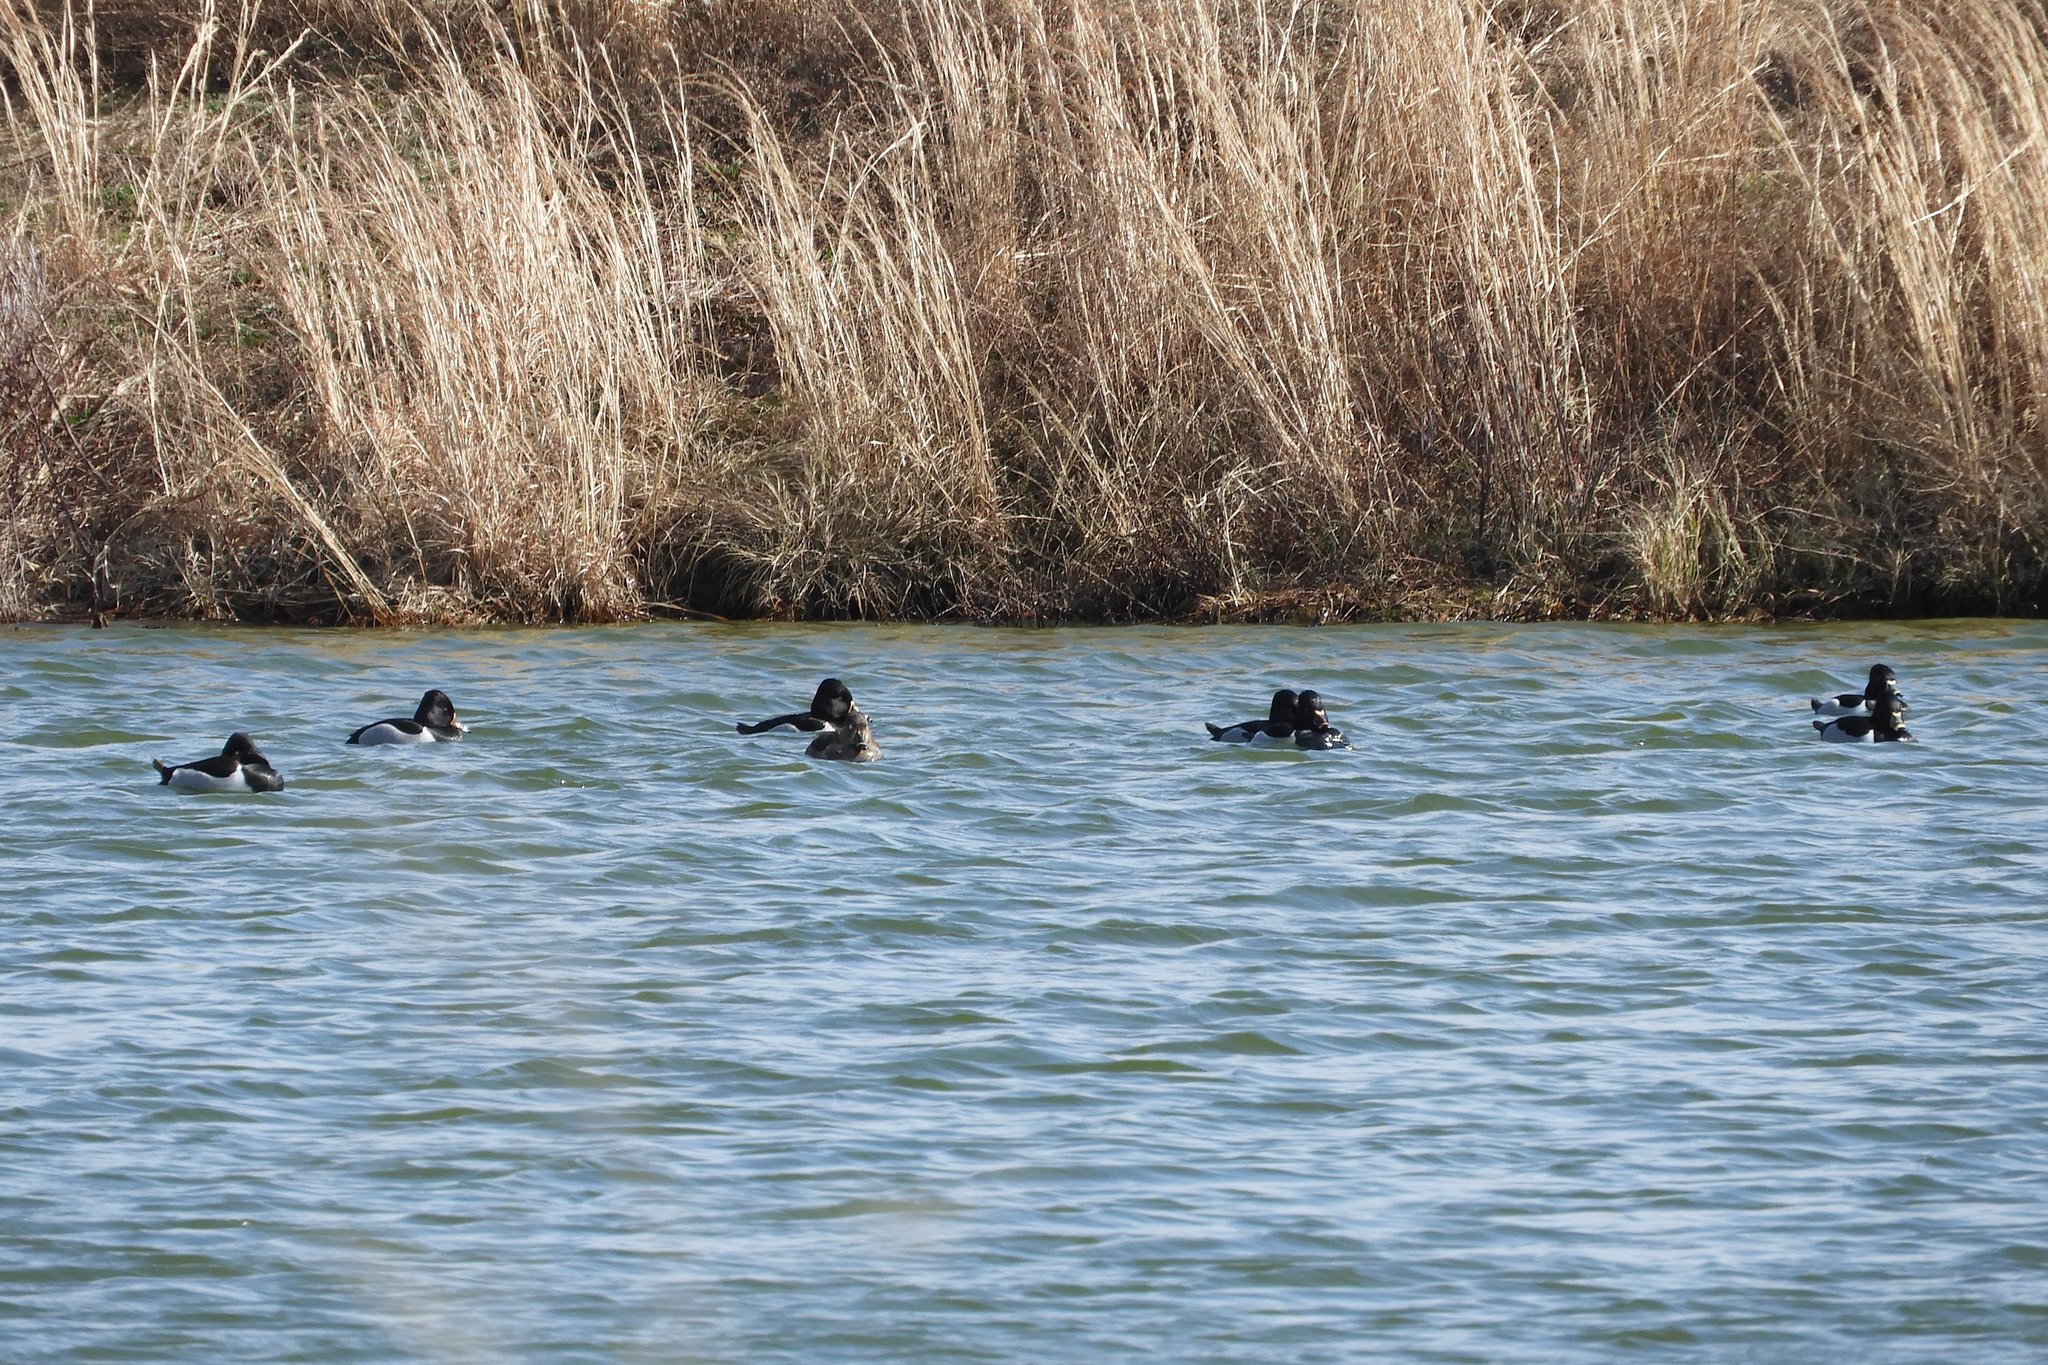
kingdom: Animalia
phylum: Chordata
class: Aves
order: Anseriformes
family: Anatidae
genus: Aythya
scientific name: Aythya collaris
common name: Ring-necked duck
